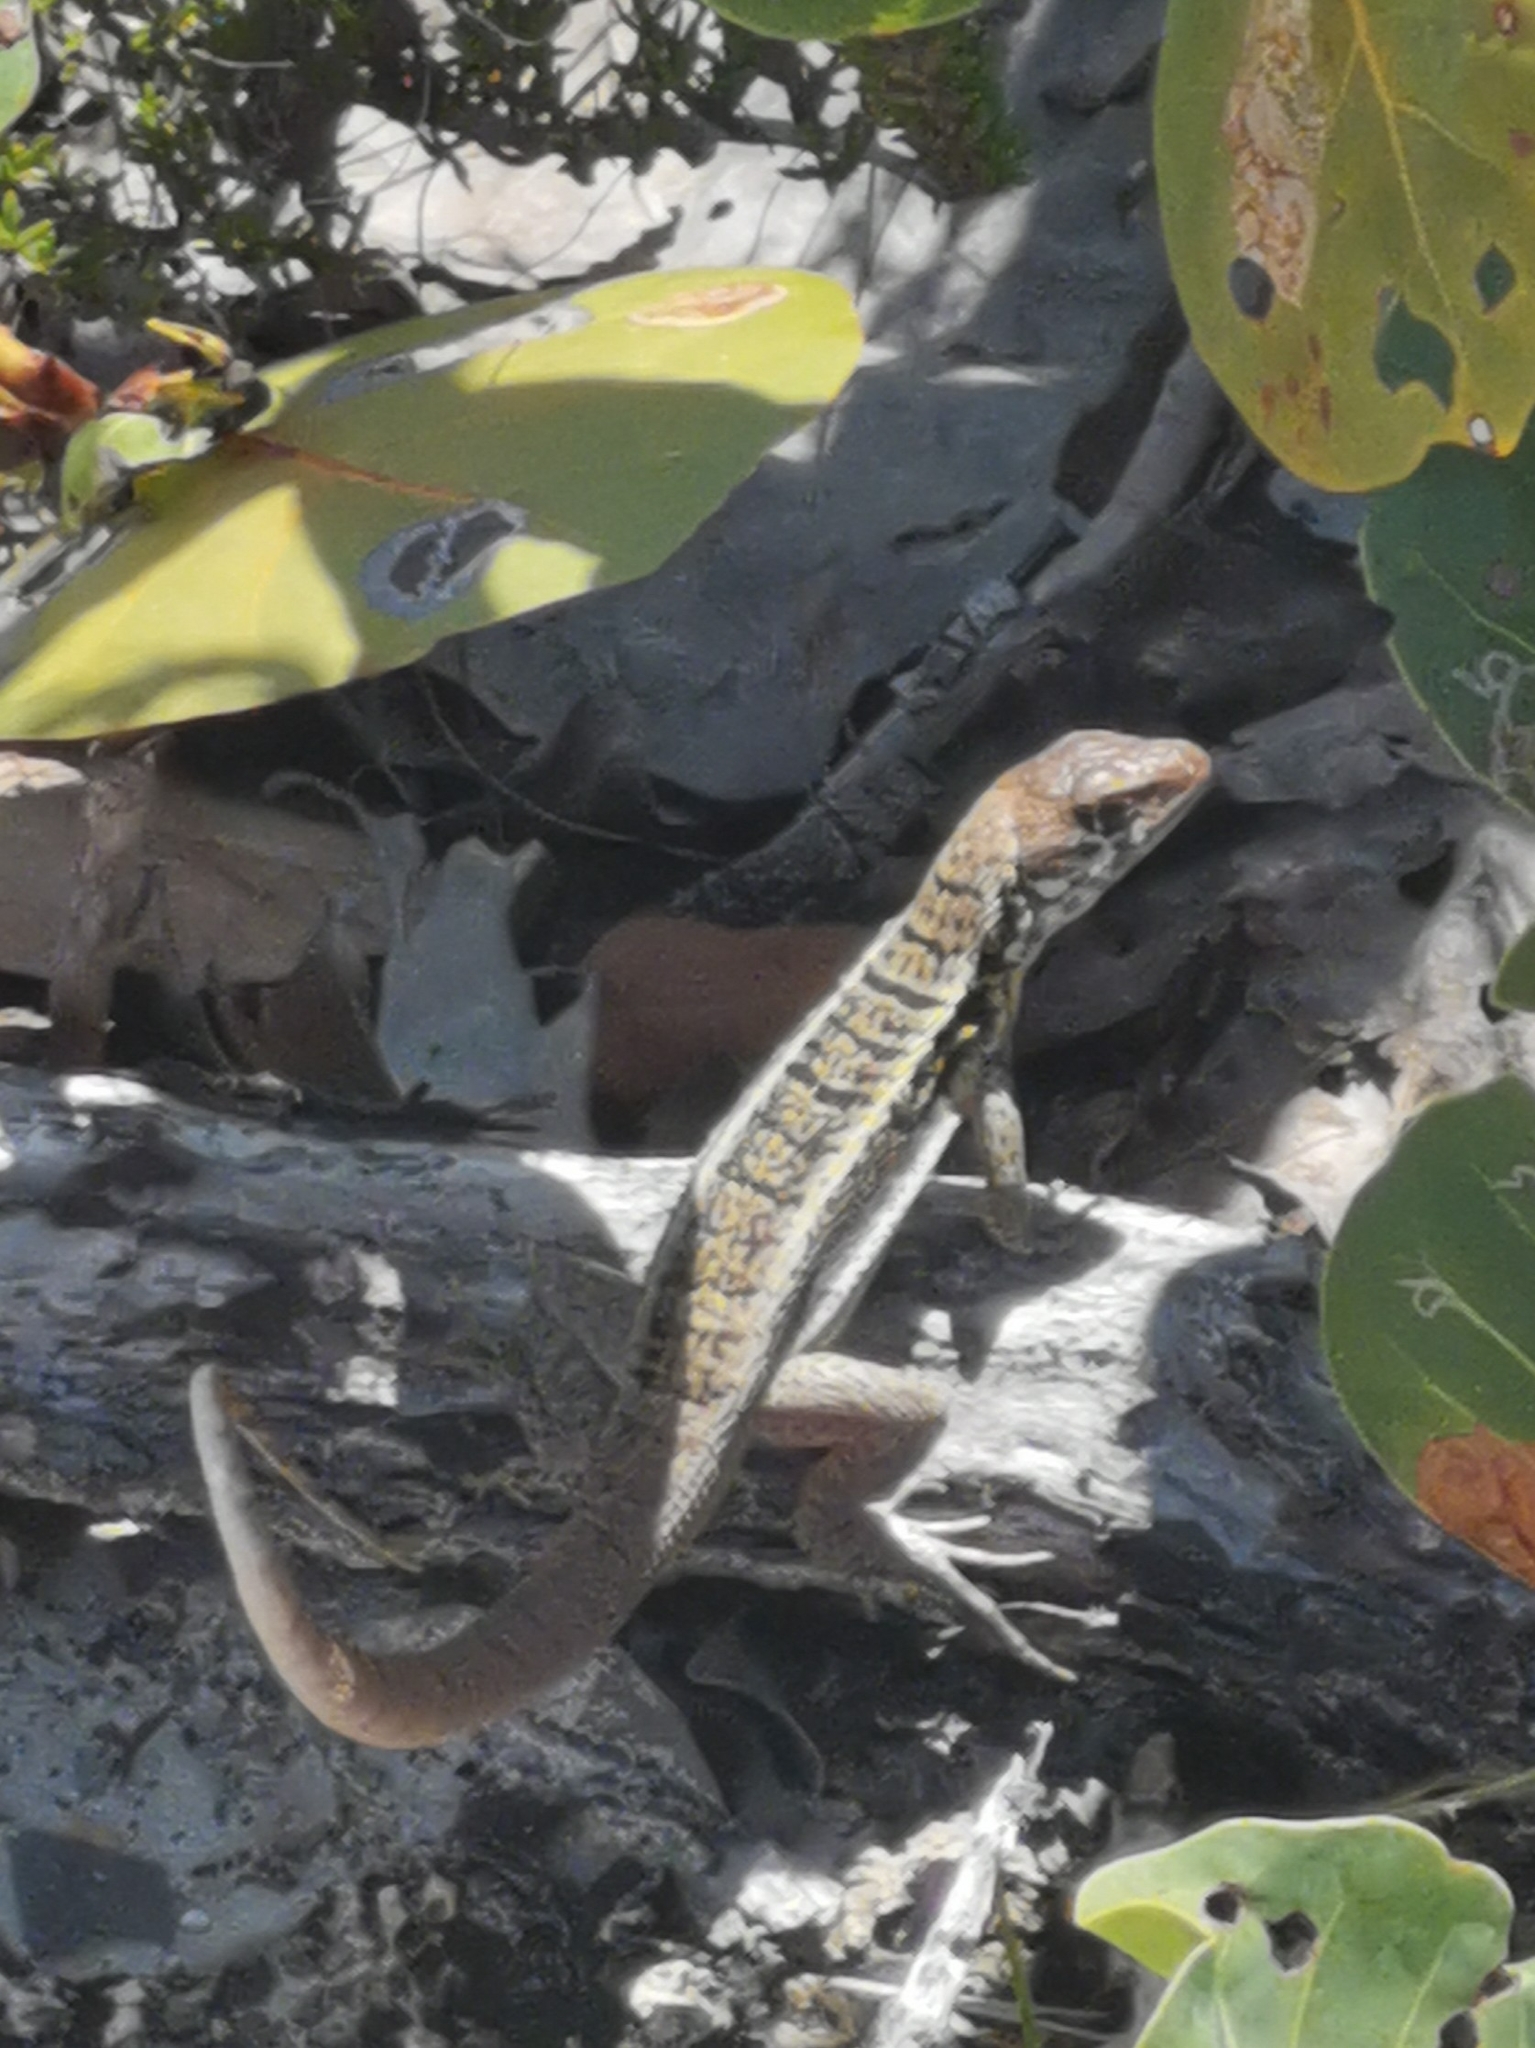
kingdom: Animalia
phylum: Chordata
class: Squamata
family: Leiocephalidae
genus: Leiocephalus
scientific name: Leiocephalus psammodromus
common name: Bastion cay curlytail lizard
